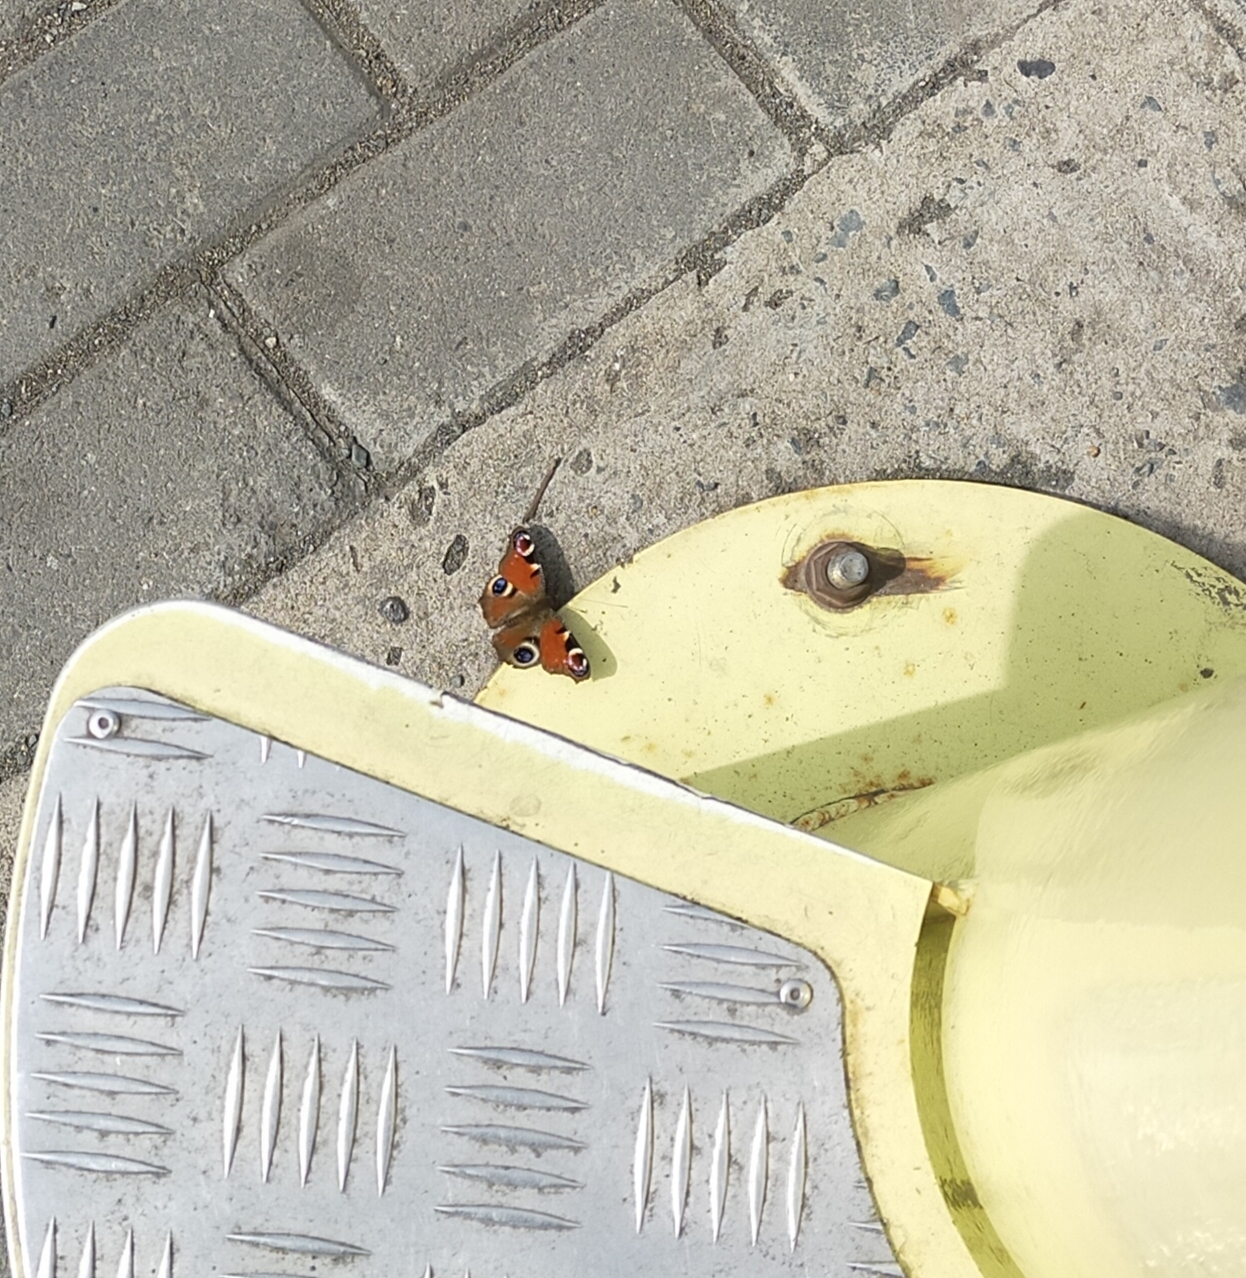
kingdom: Animalia
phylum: Arthropoda
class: Insecta
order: Lepidoptera
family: Nymphalidae
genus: Aglais
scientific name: Aglais io
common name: Peacock
